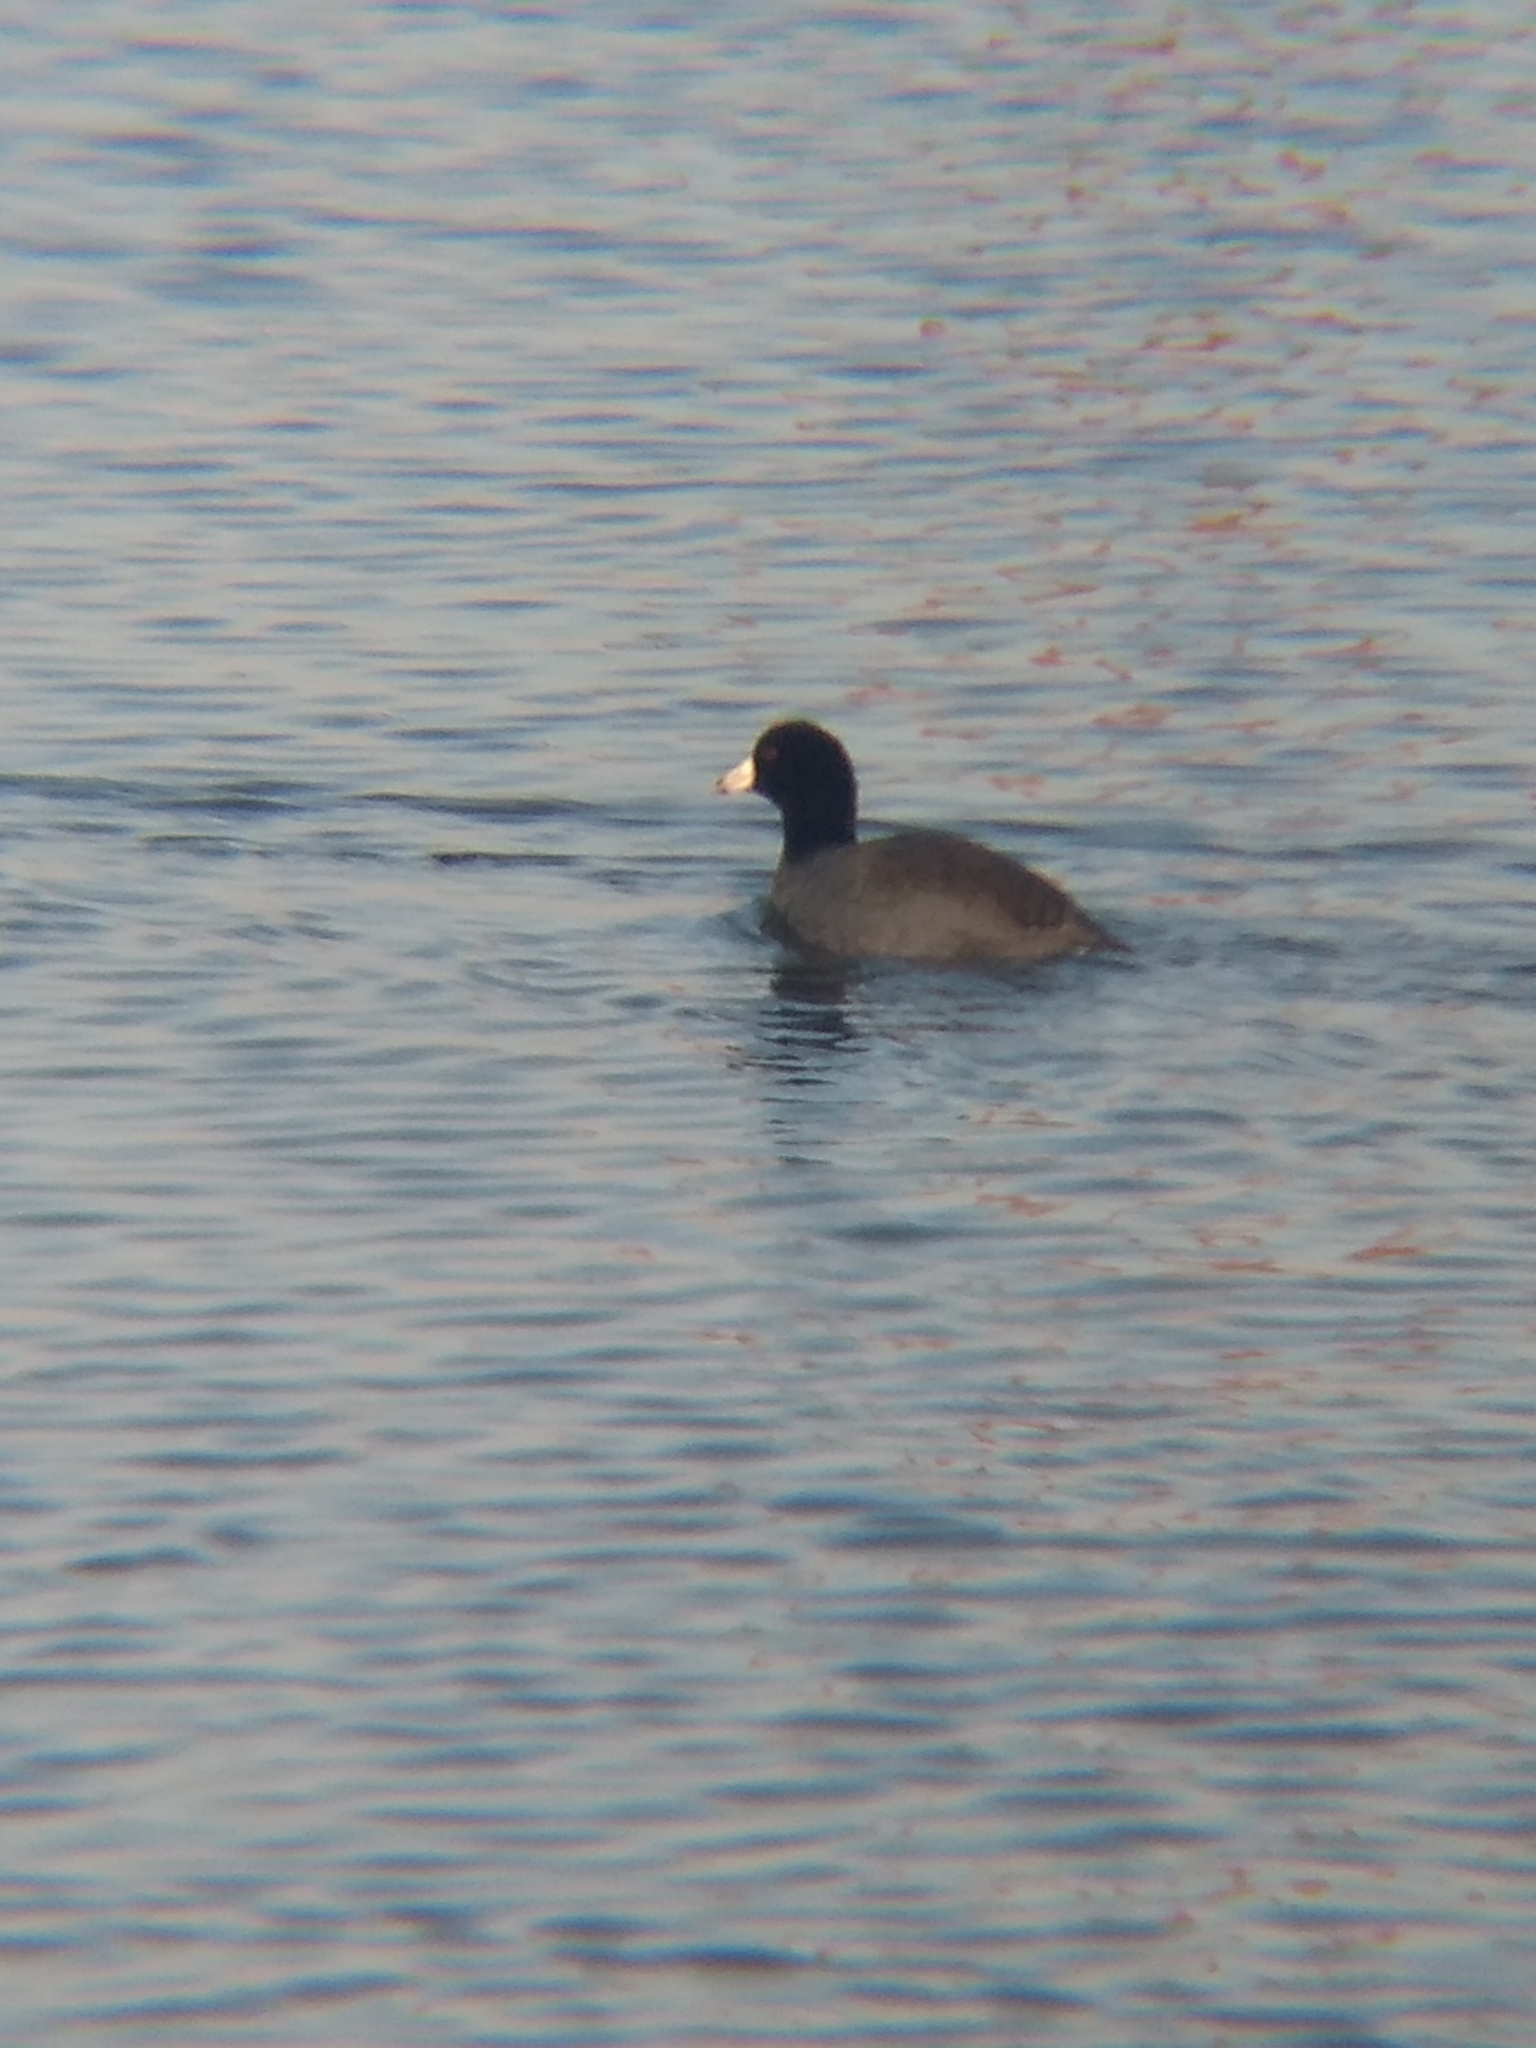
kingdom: Animalia
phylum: Chordata
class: Aves
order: Gruiformes
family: Rallidae
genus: Fulica
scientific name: Fulica americana
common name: American coot
